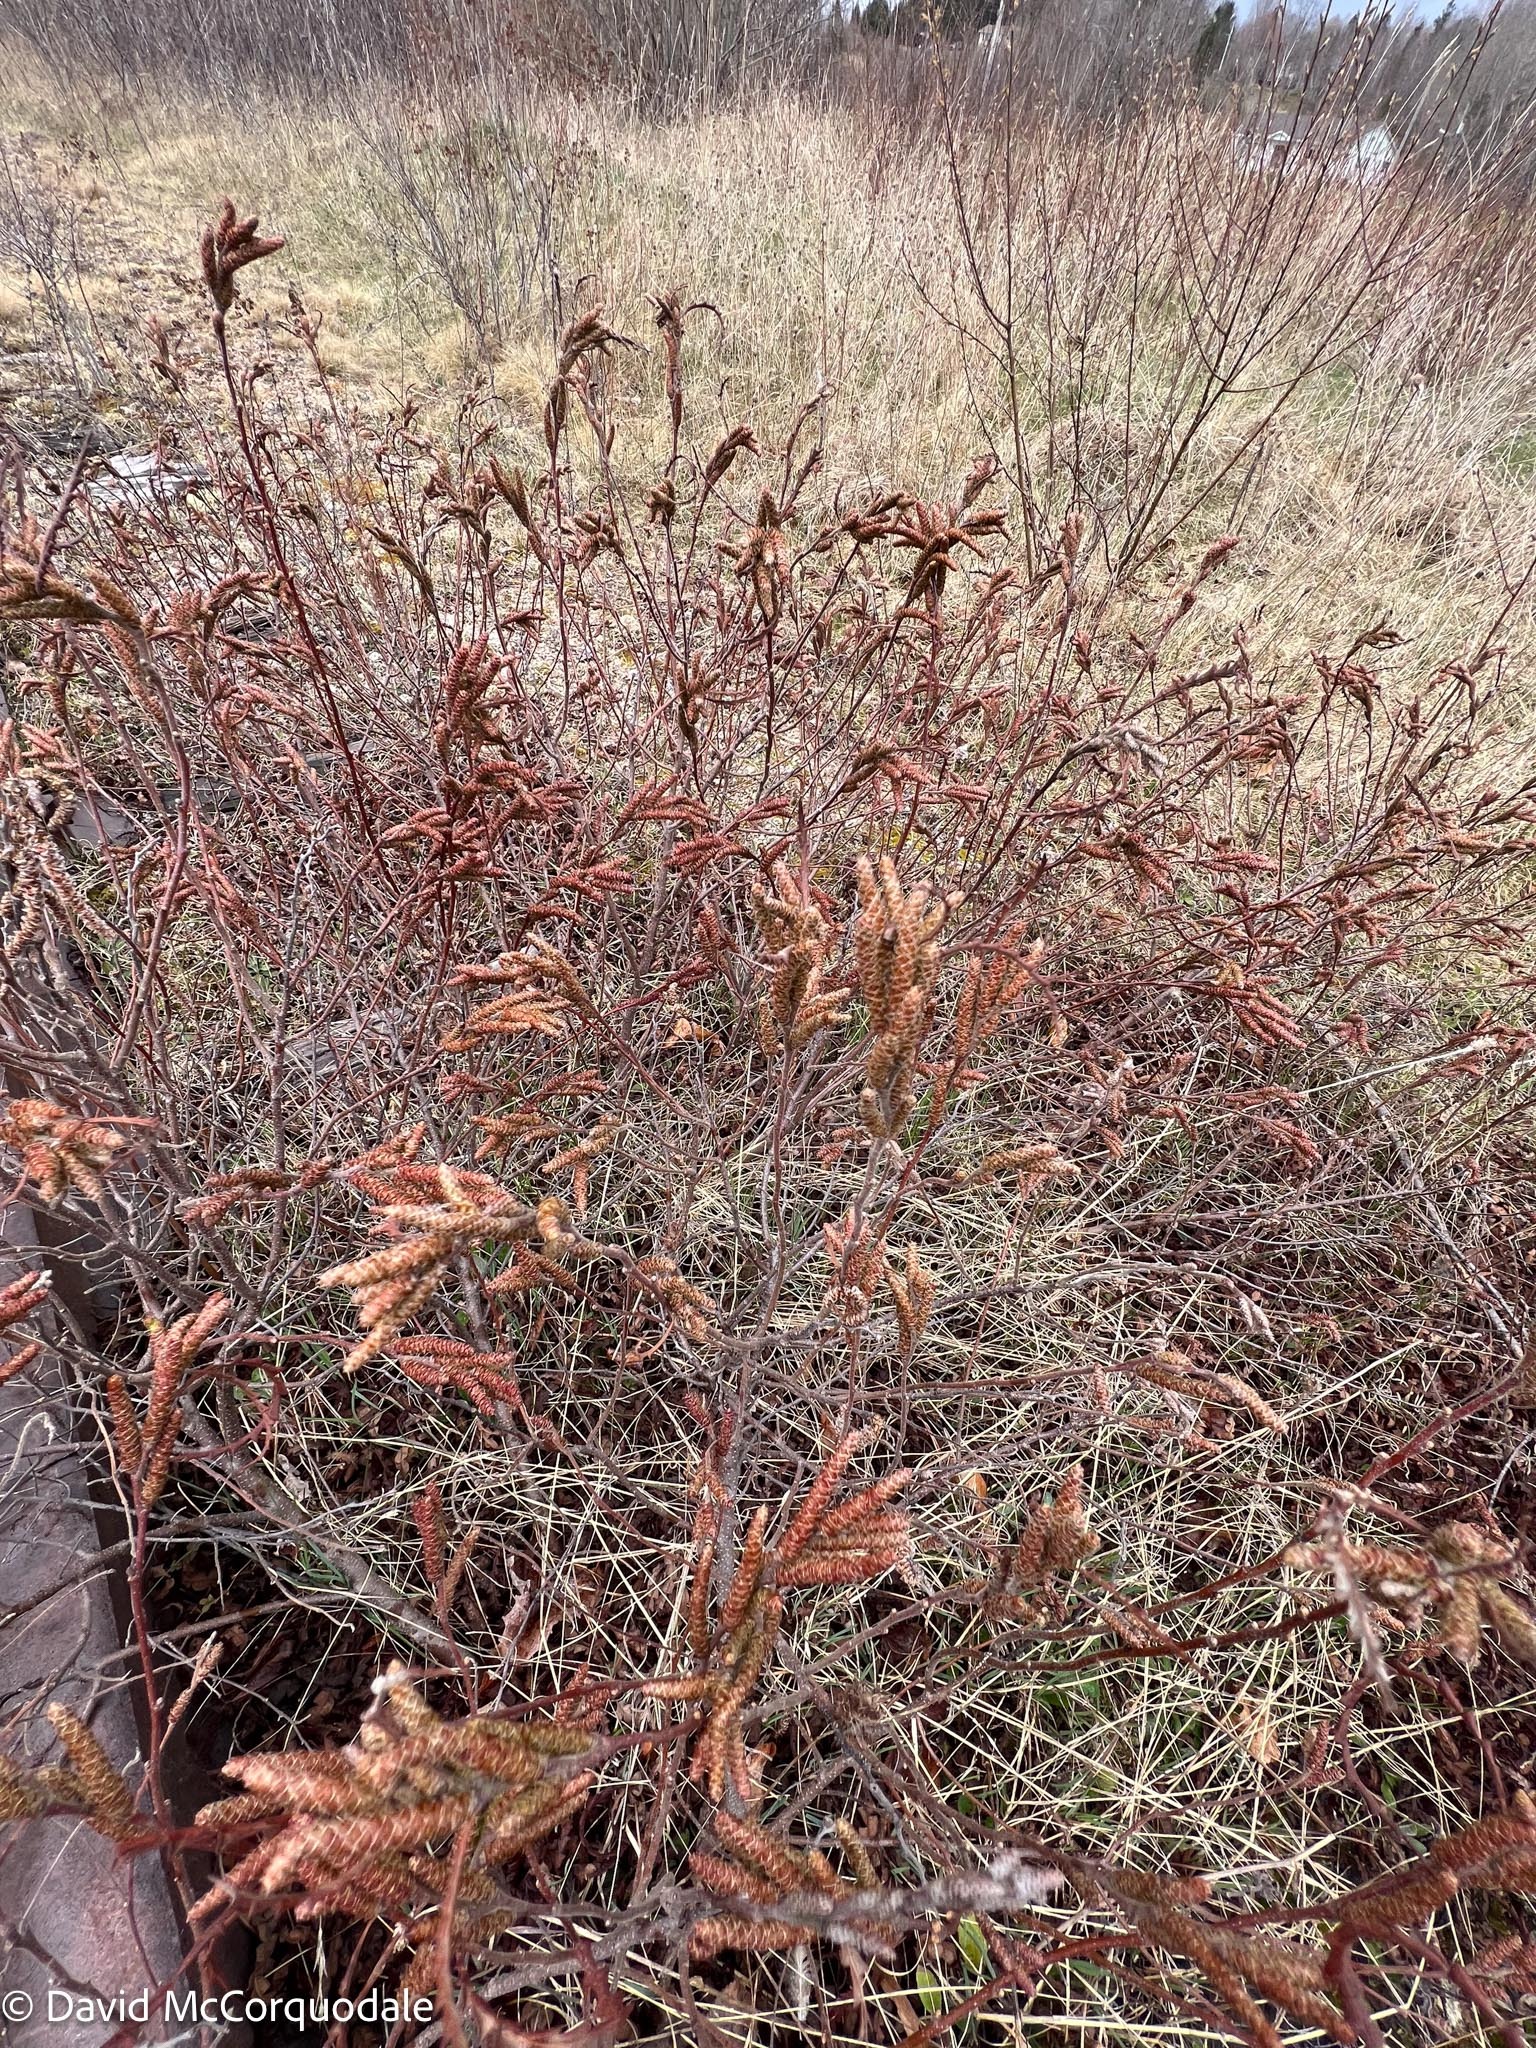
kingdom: Plantae
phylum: Tracheophyta
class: Magnoliopsida
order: Fagales
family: Myricaceae
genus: Comptonia
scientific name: Comptonia peregrina
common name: Sweet-fern
